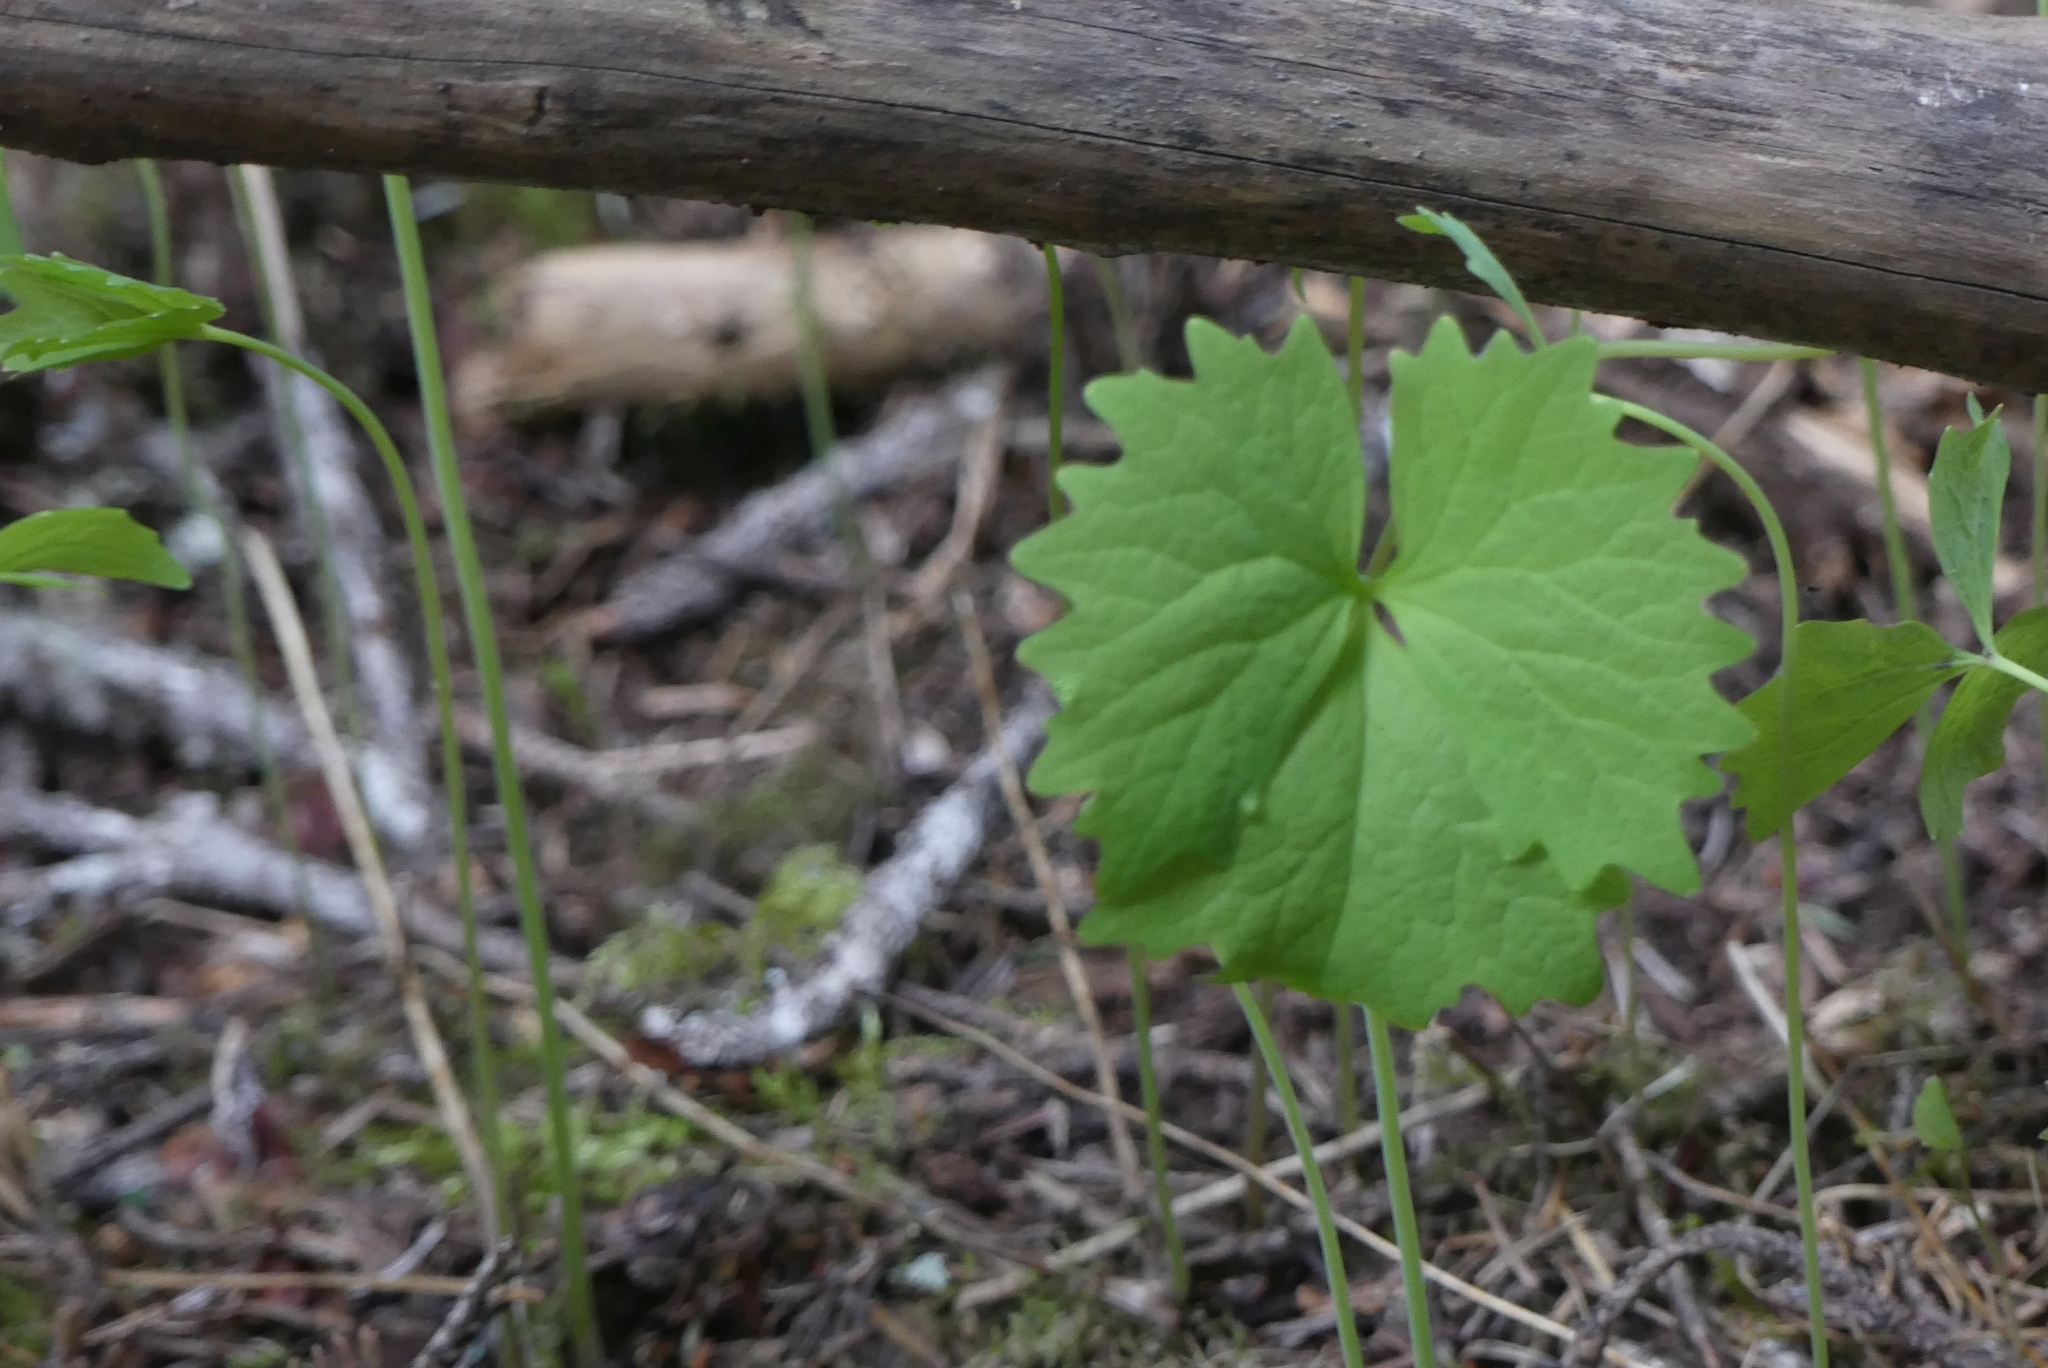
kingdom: Plantae
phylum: Tracheophyta
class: Magnoliopsida
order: Ranunculales
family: Berberidaceae
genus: Achlys
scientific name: Achlys triphylla
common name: Vanilla-leaf
